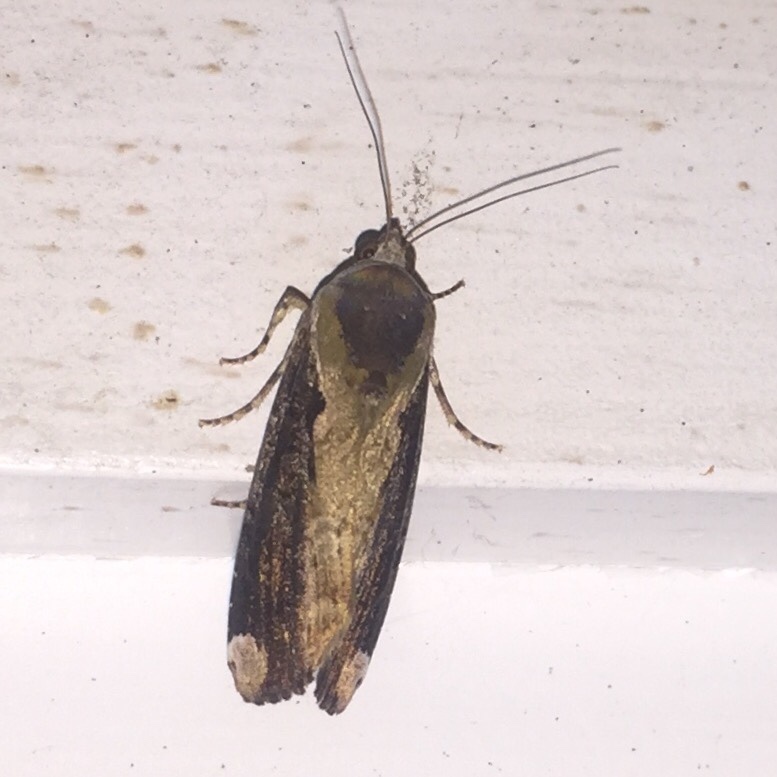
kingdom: Animalia
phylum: Arthropoda
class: Insecta
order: Lepidoptera
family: Noctuidae
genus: Magusa
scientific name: Magusa divaricata
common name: Orb narrow-winged moth
